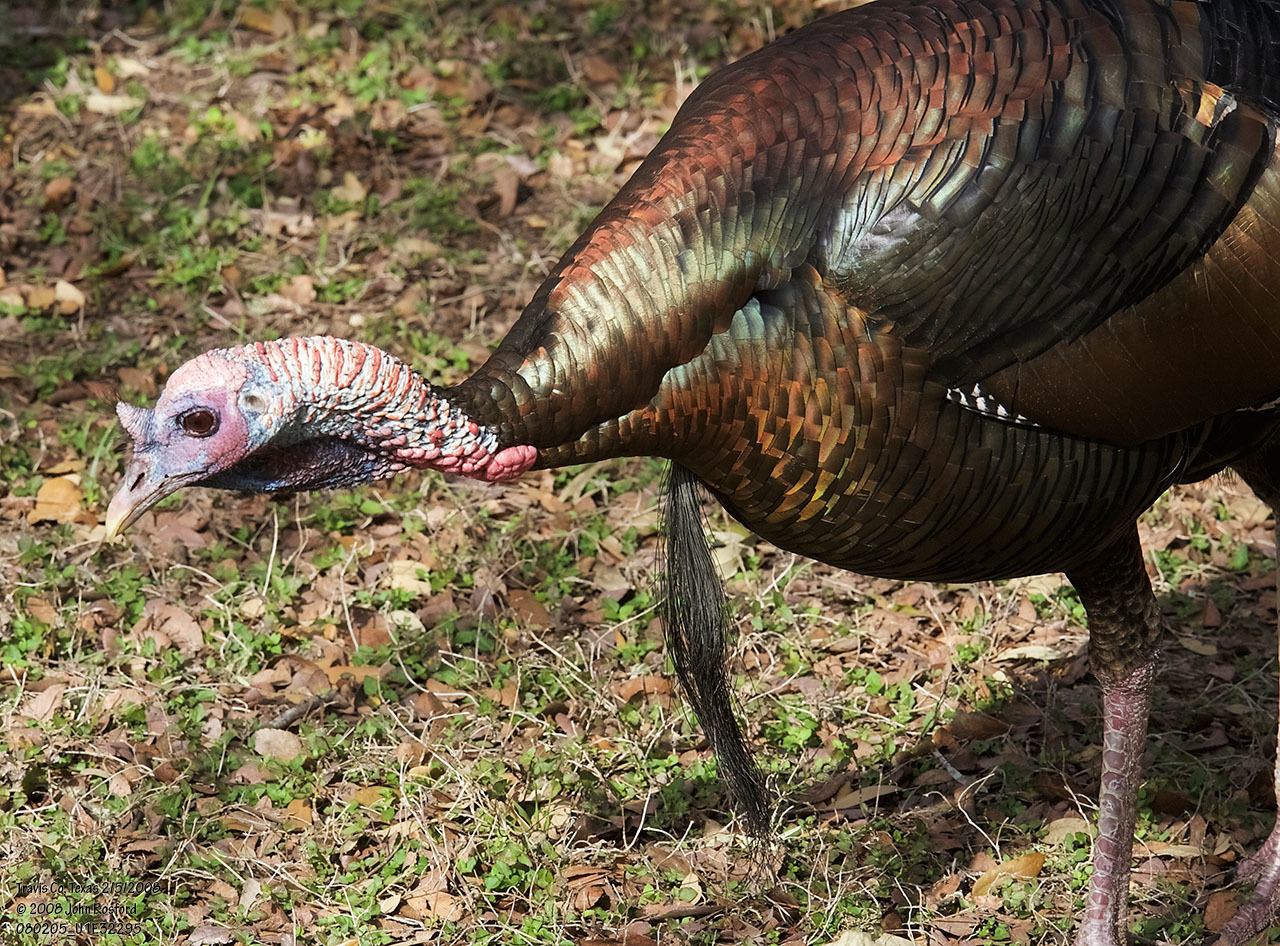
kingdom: Animalia
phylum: Chordata
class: Aves
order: Galliformes
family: Phasianidae
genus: Meleagris
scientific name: Meleagris gallopavo
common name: Wild turkey
